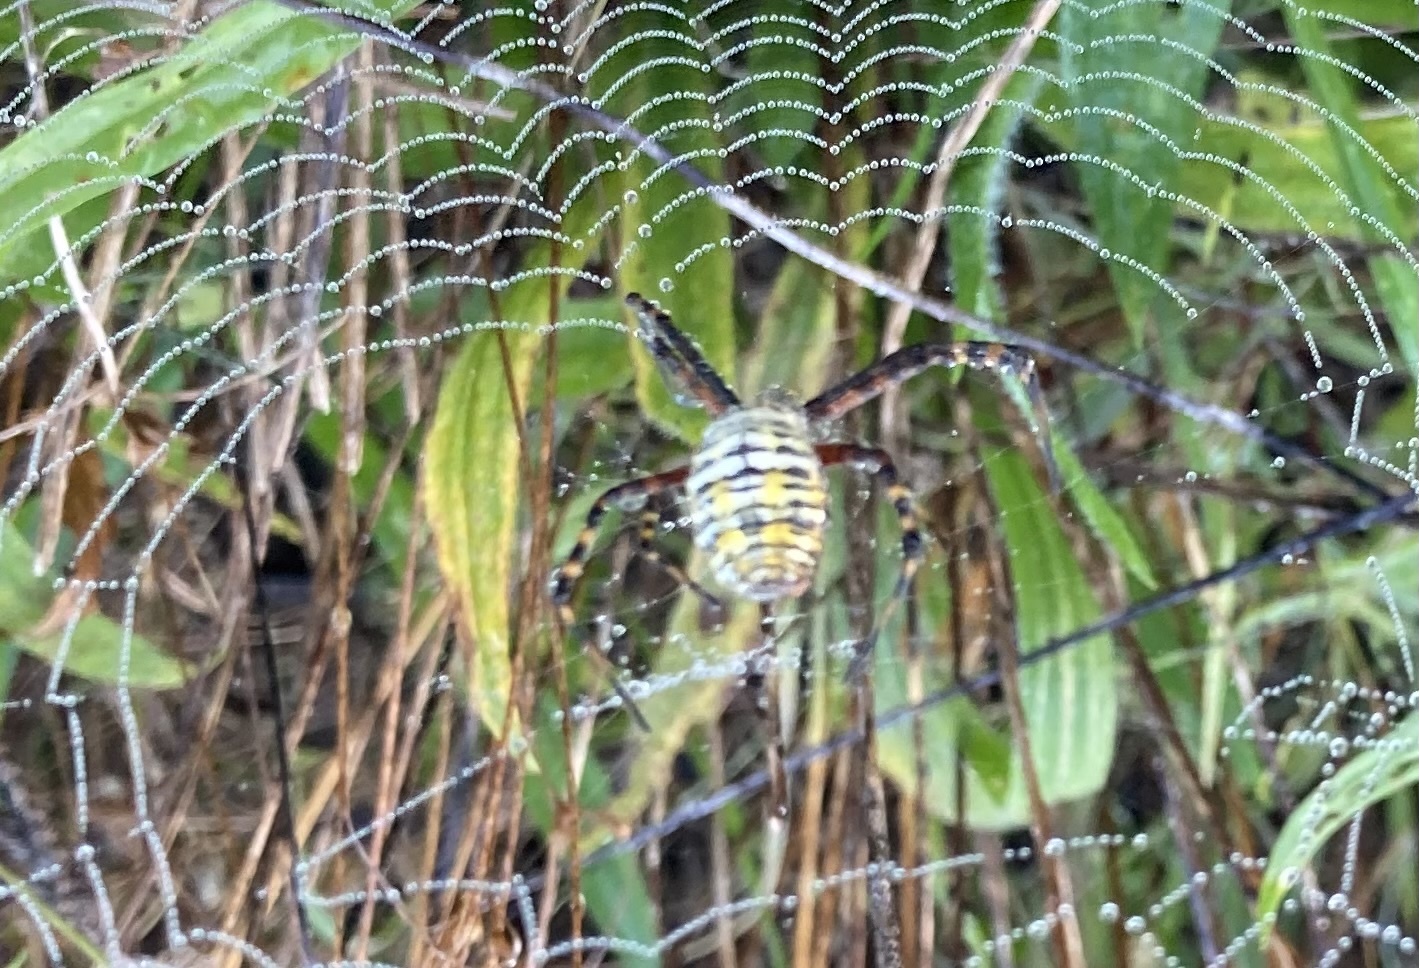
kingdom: Animalia
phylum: Arthropoda
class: Arachnida
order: Araneae
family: Araneidae
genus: Argiope
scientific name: Argiope trifasciata
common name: Banded garden spider
